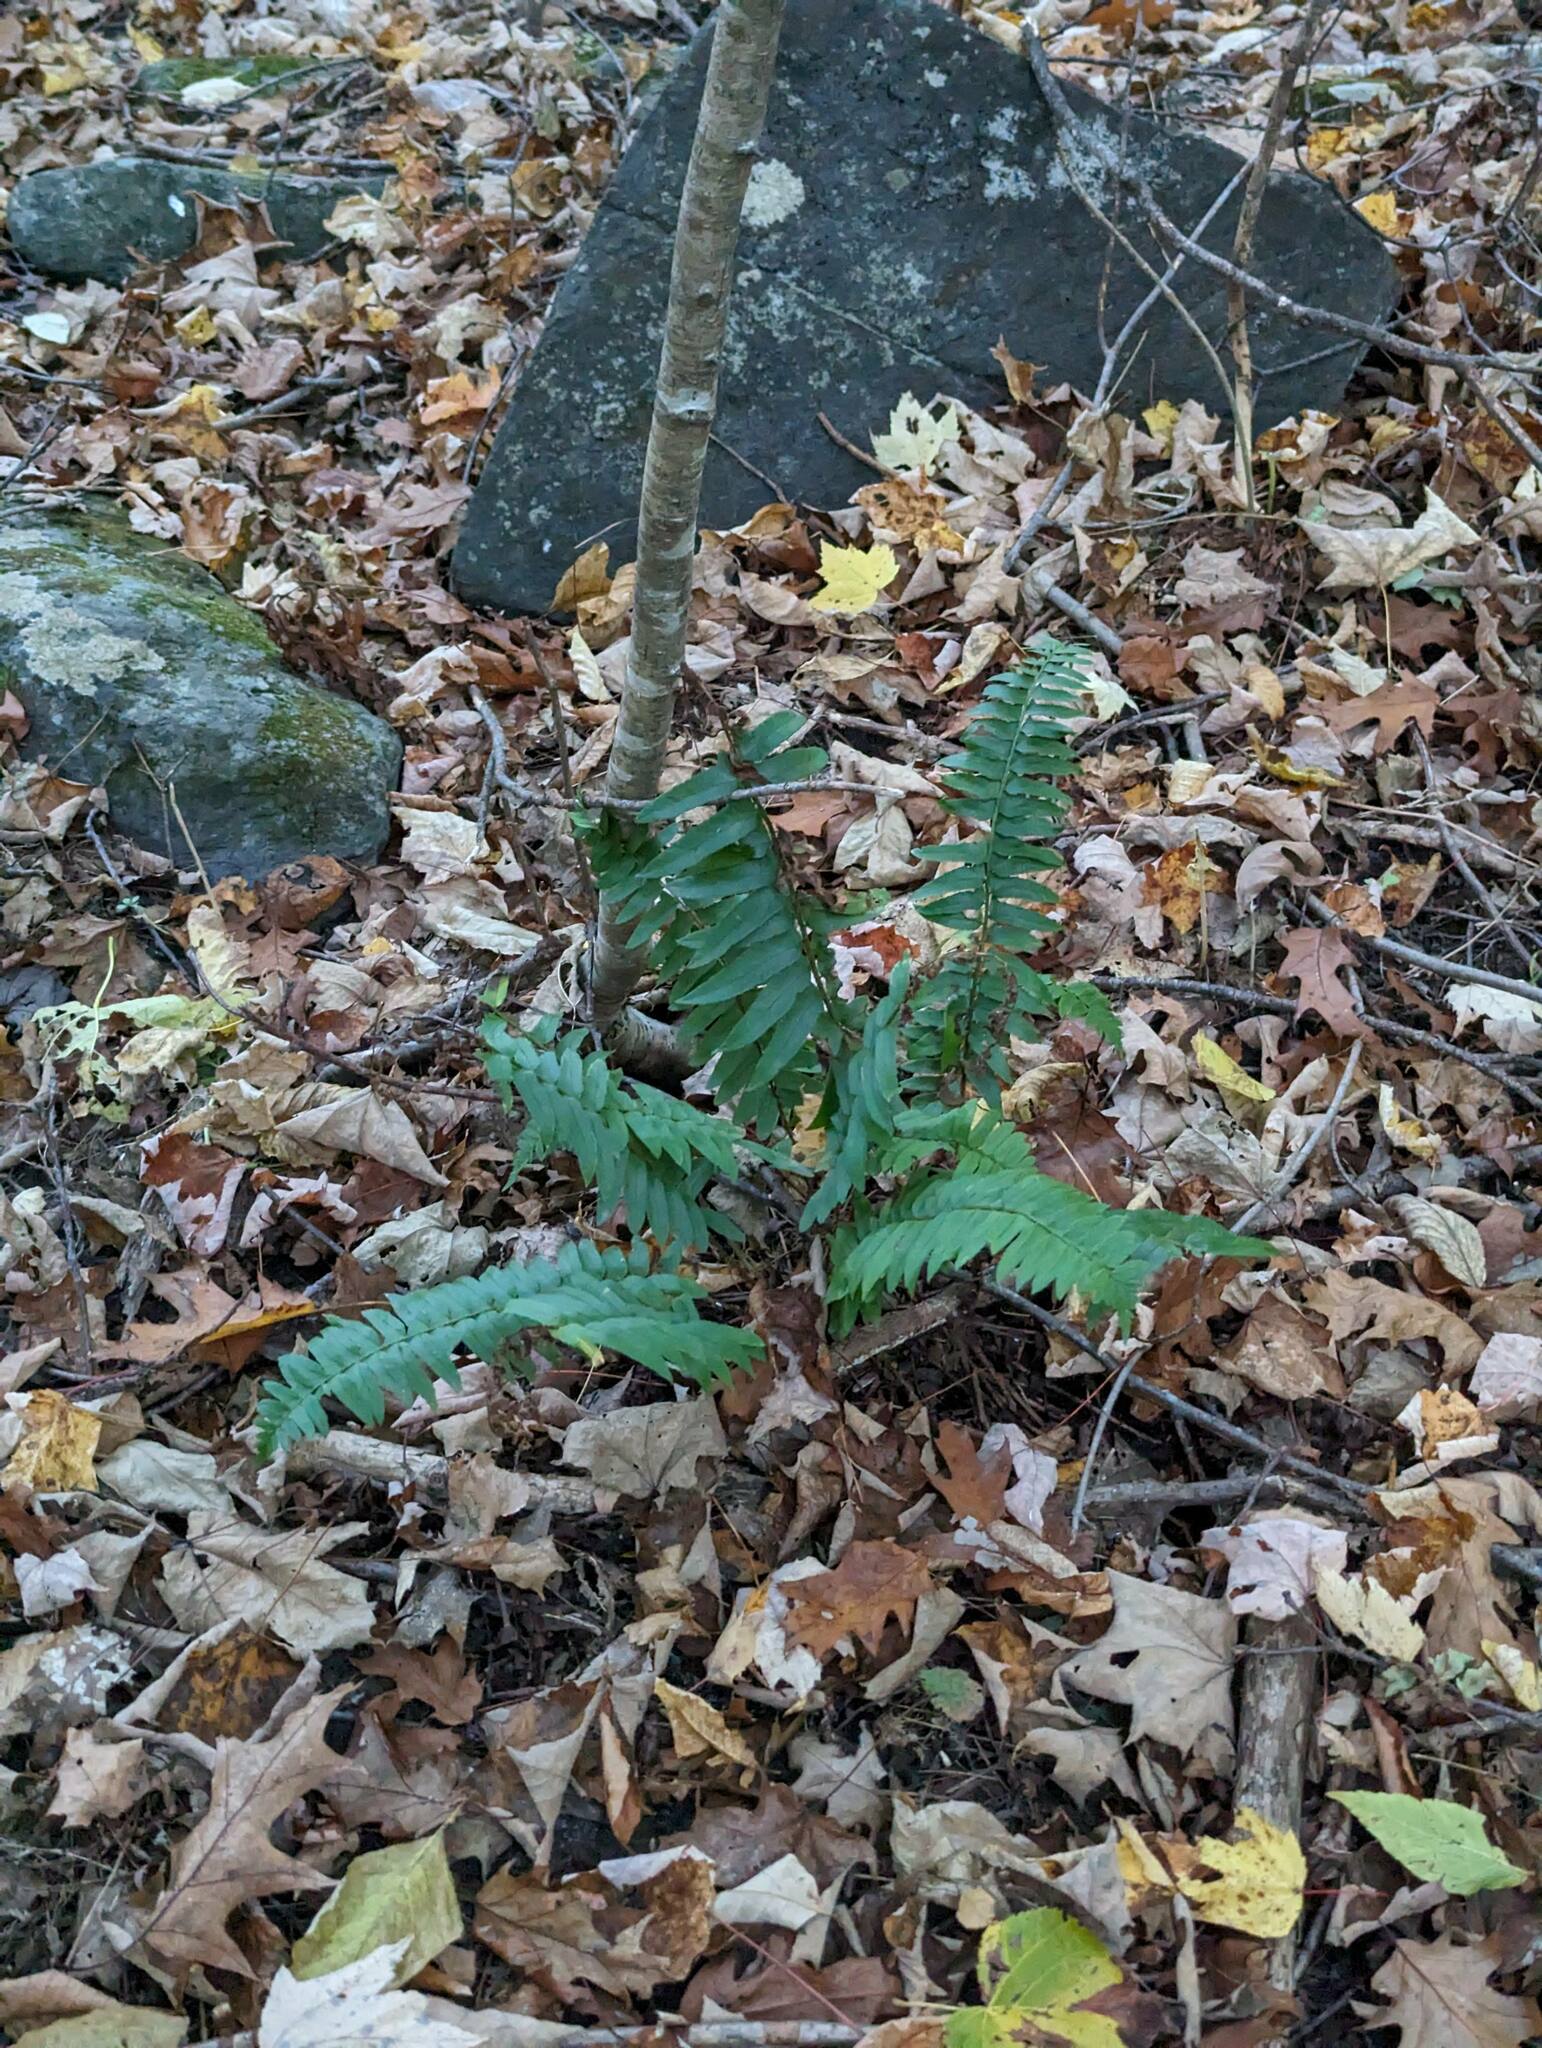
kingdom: Plantae
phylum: Tracheophyta
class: Polypodiopsida
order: Polypodiales
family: Dryopteridaceae
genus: Polystichum
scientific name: Polystichum acrostichoides
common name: Christmas fern
